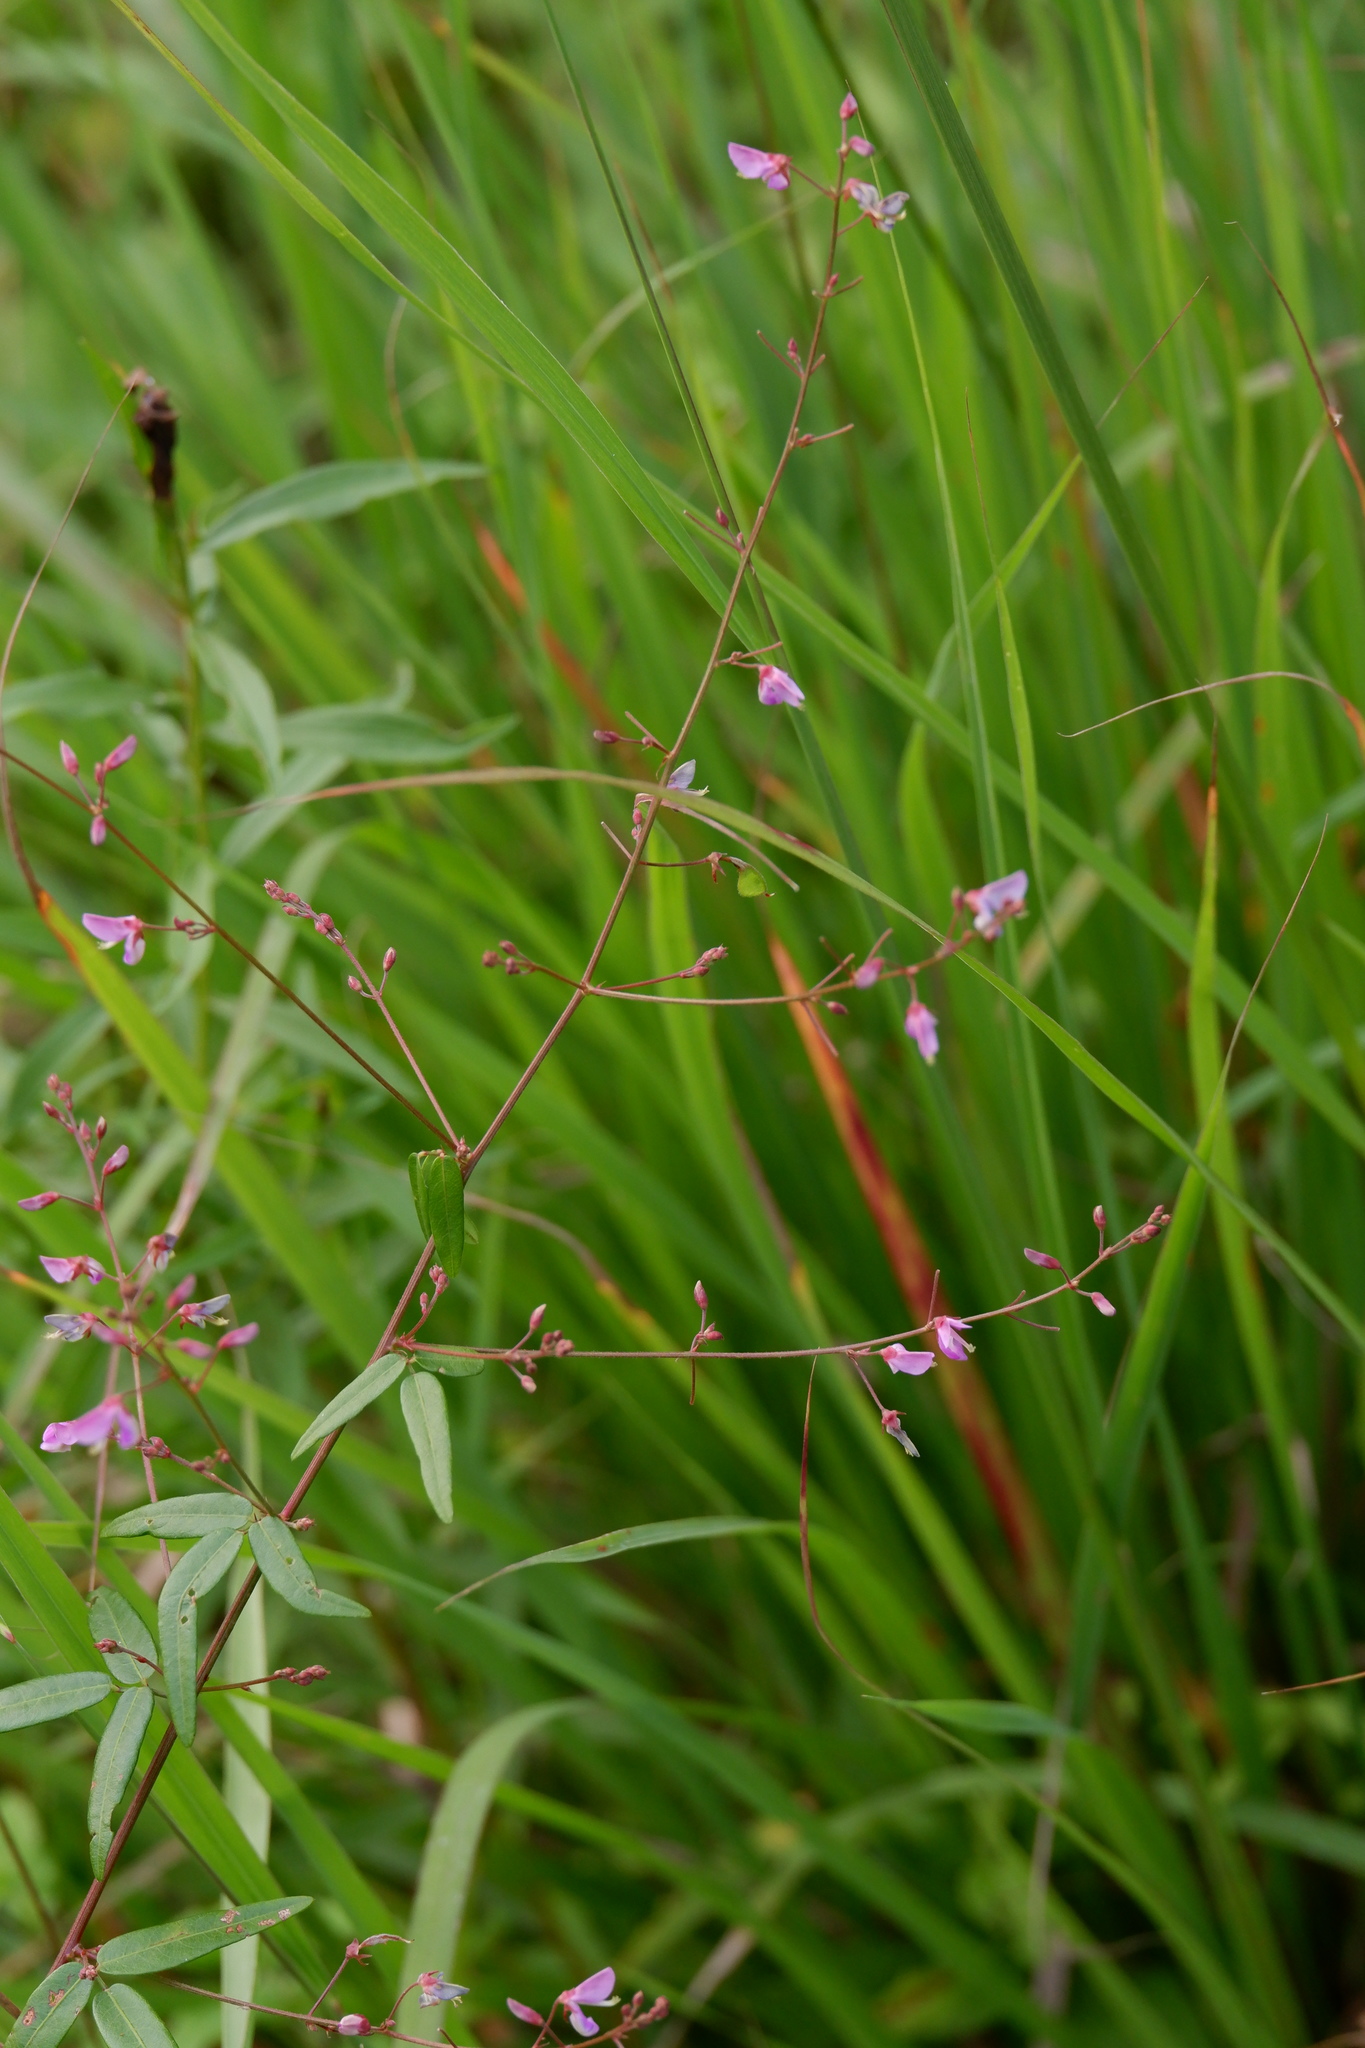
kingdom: Plantae
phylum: Tracheophyta
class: Magnoliopsida
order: Fabales
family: Fabaceae
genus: Desmodium
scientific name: Desmodium paniculatum
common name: Panicled tick-clover
